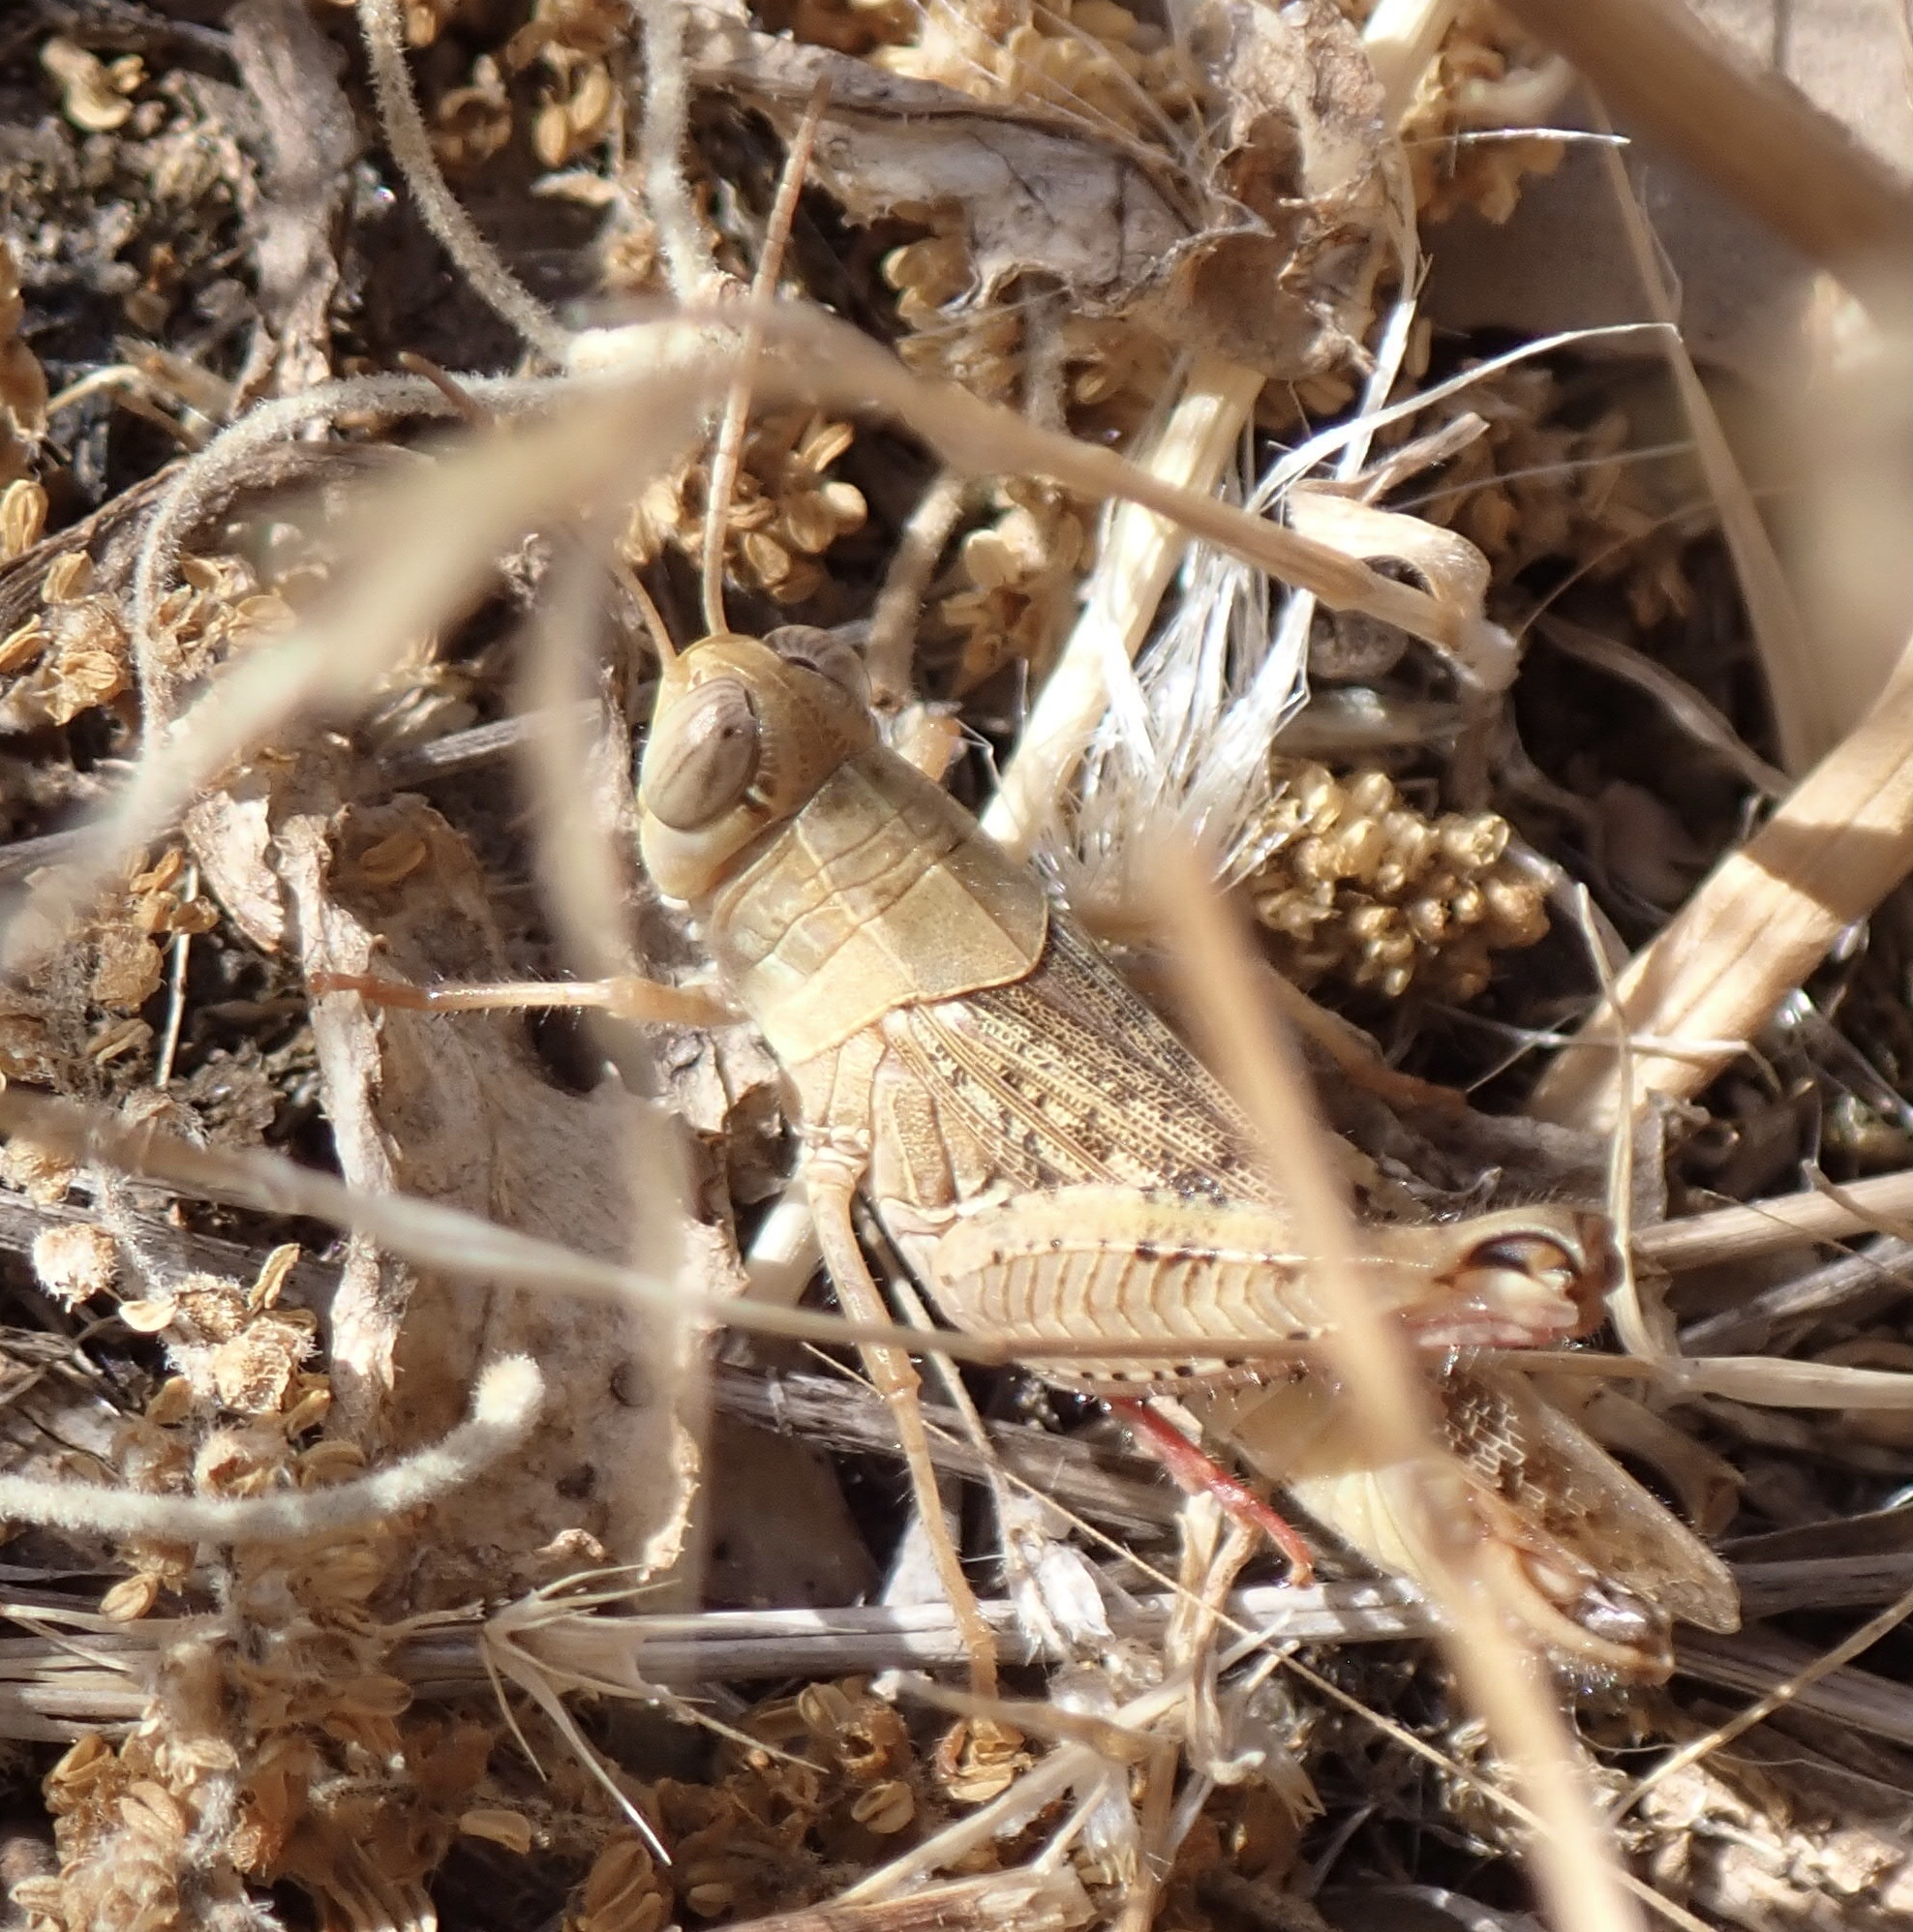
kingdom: Animalia
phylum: Arthropoda
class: Insecta
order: Orthoptera
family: Acrididae
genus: Calliptamus
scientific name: Calliptamus italicus
